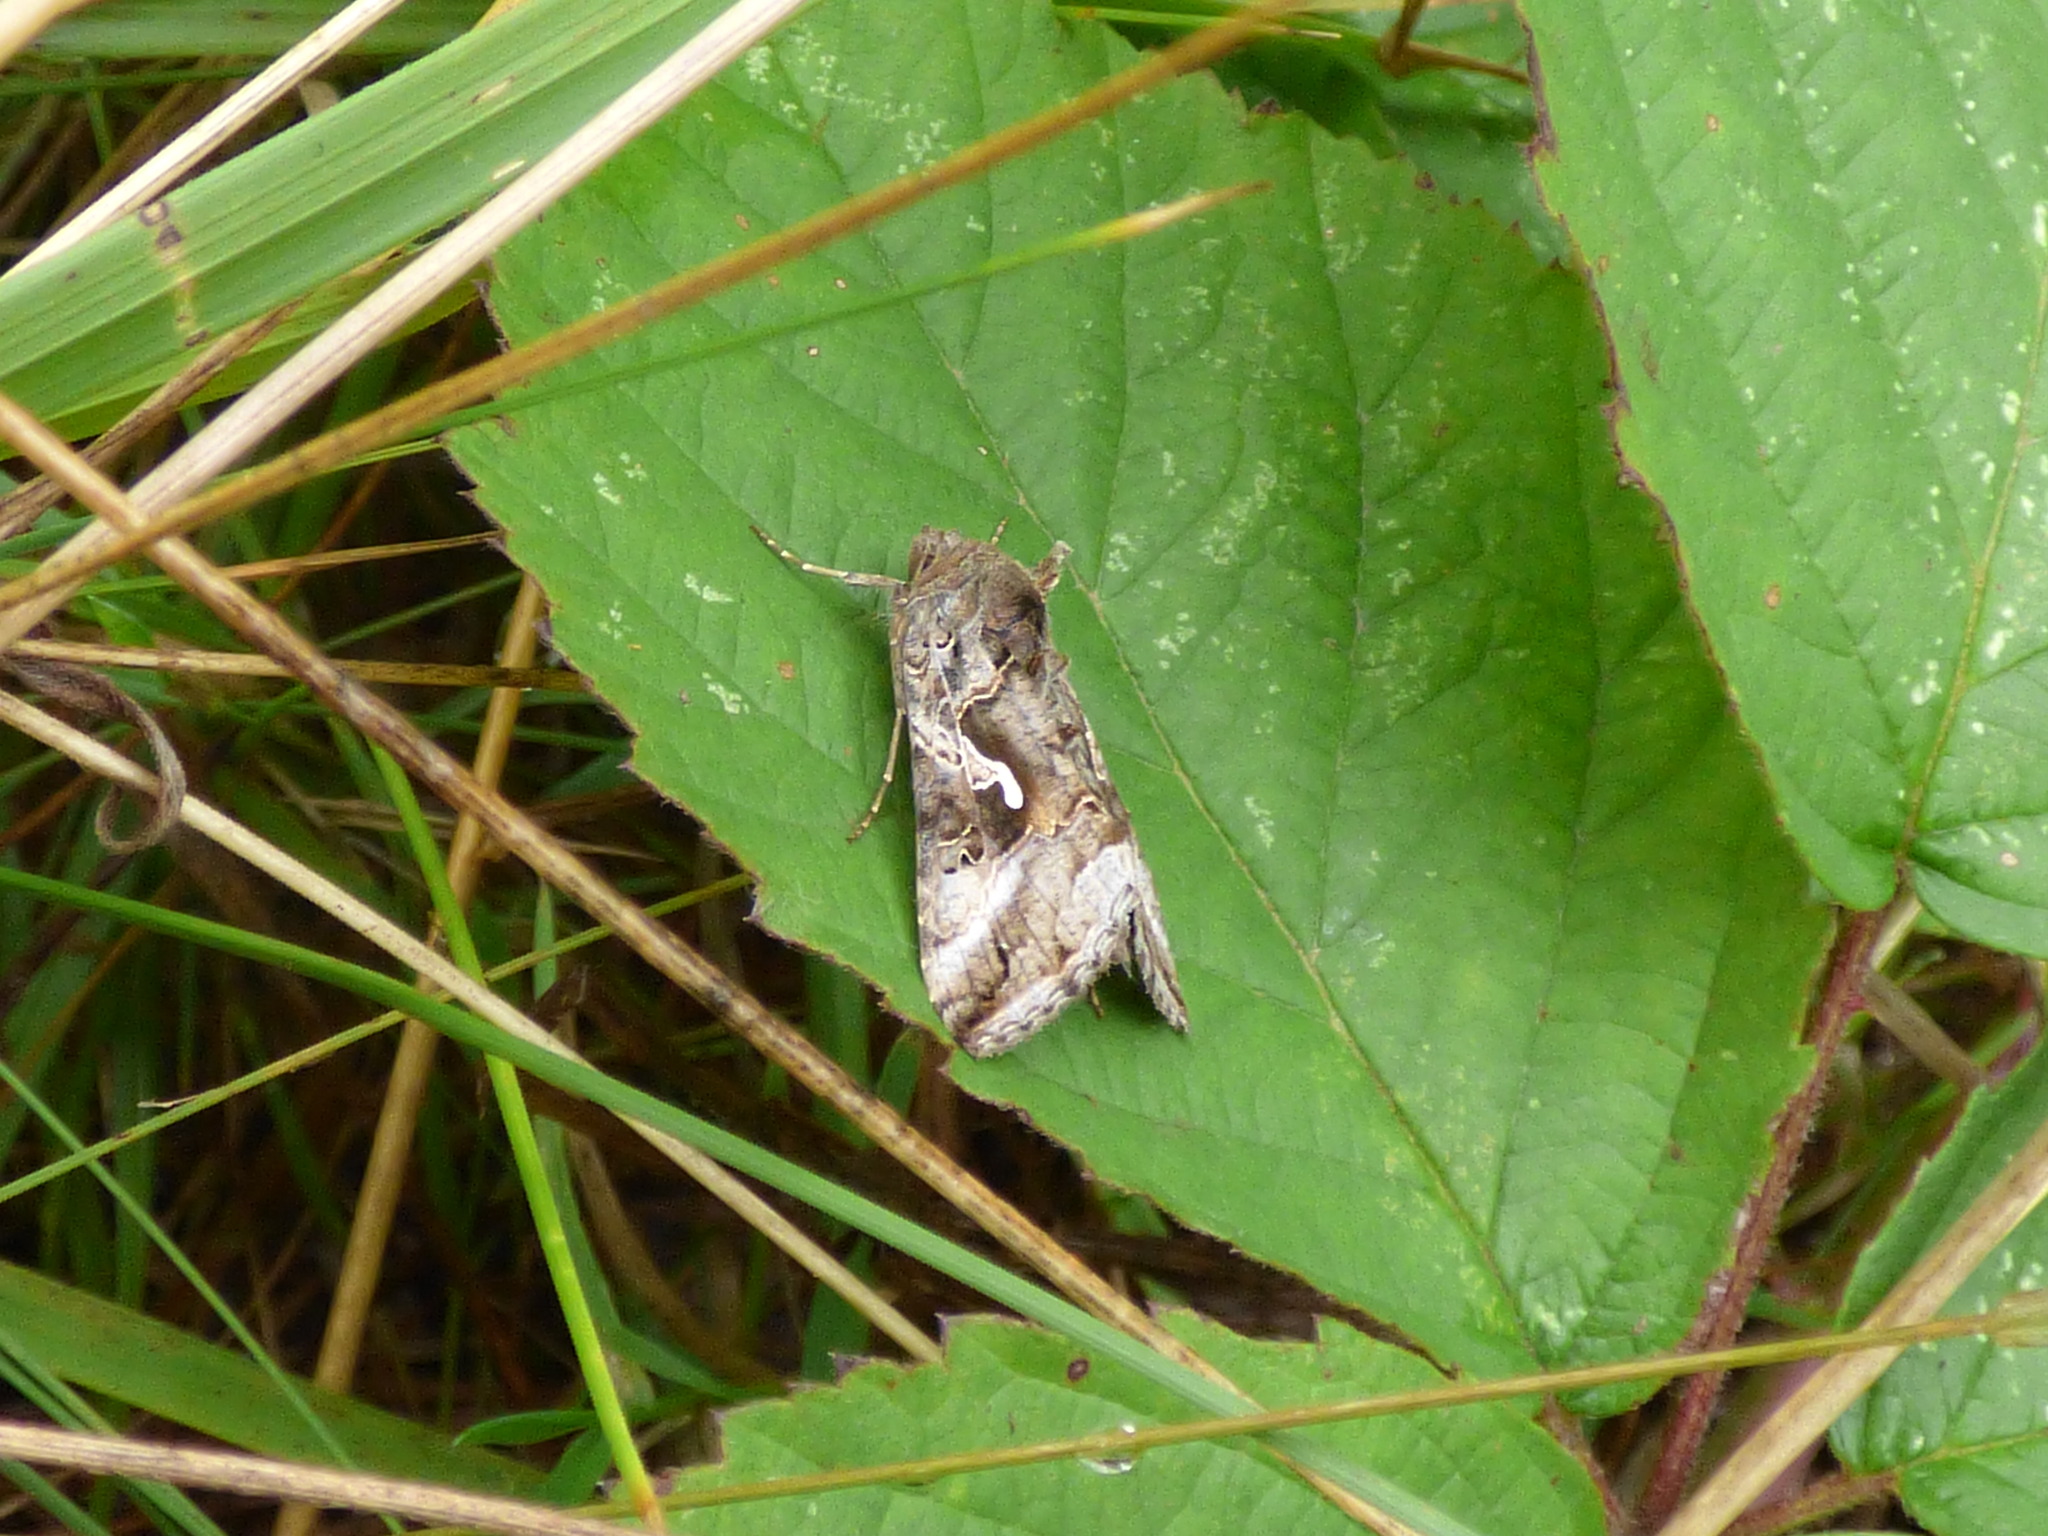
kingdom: Animalia
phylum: Arthropoda
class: Insecta
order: Lepidoptera
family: Noctuidae
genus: Autographa
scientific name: Autographa gamma
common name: Silver y
